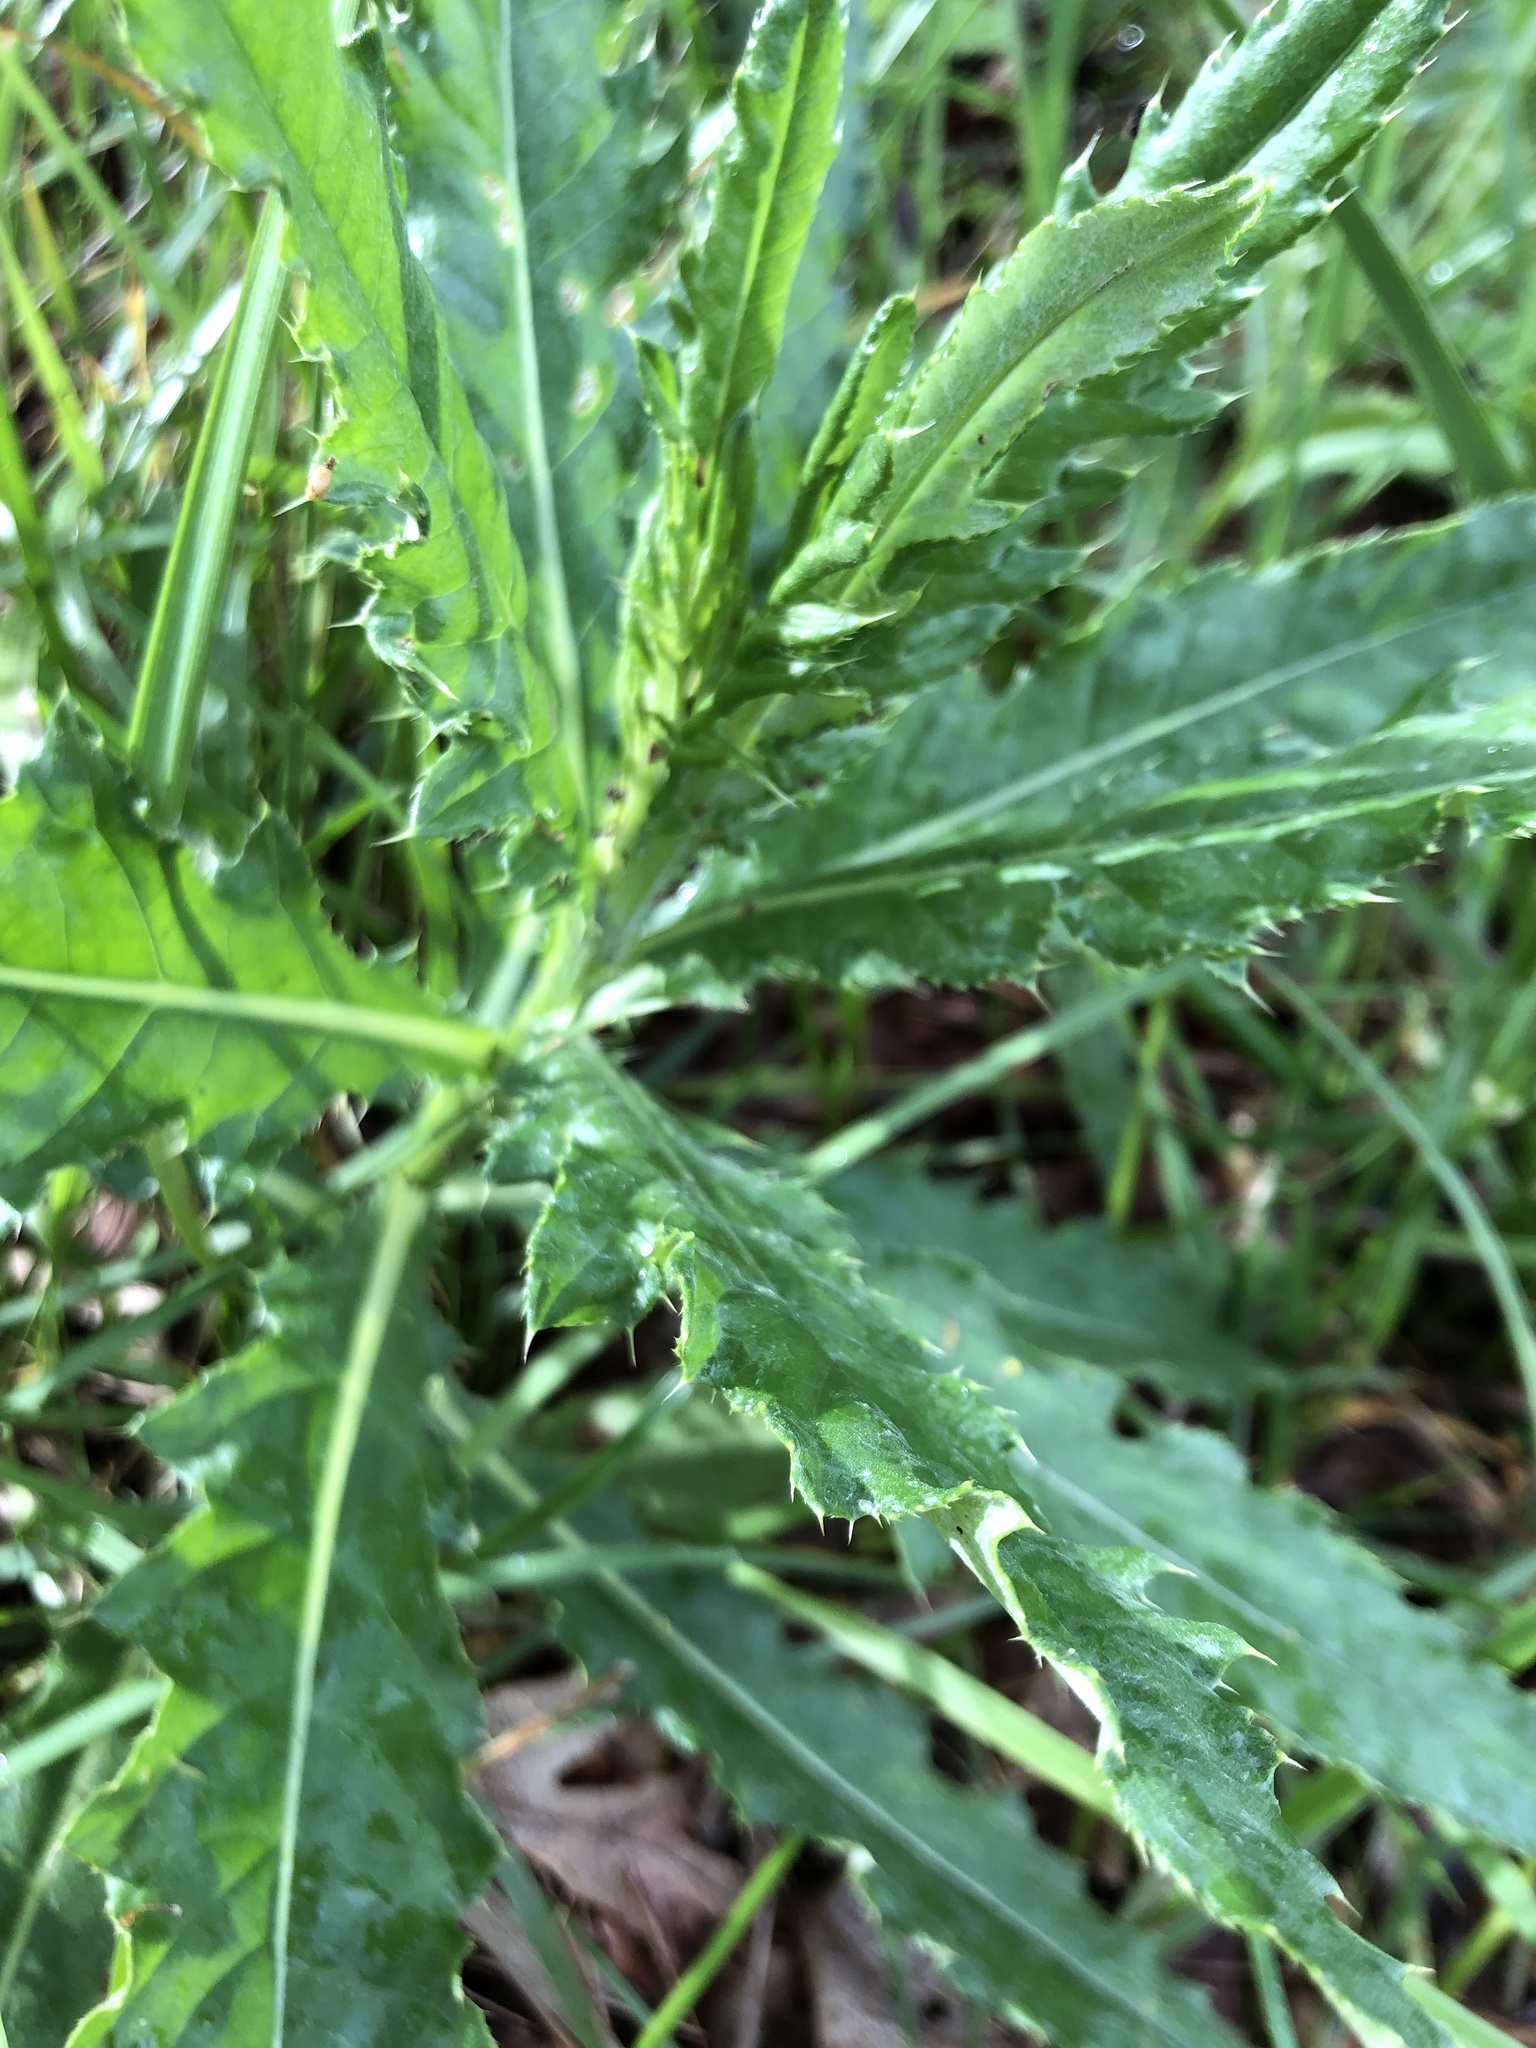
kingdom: Plantae
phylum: Tracheophyta
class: Magnoliopsida
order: Asterales
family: Asteraceae
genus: Cirsium
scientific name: Cirsium arvense
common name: Creeping thistle
